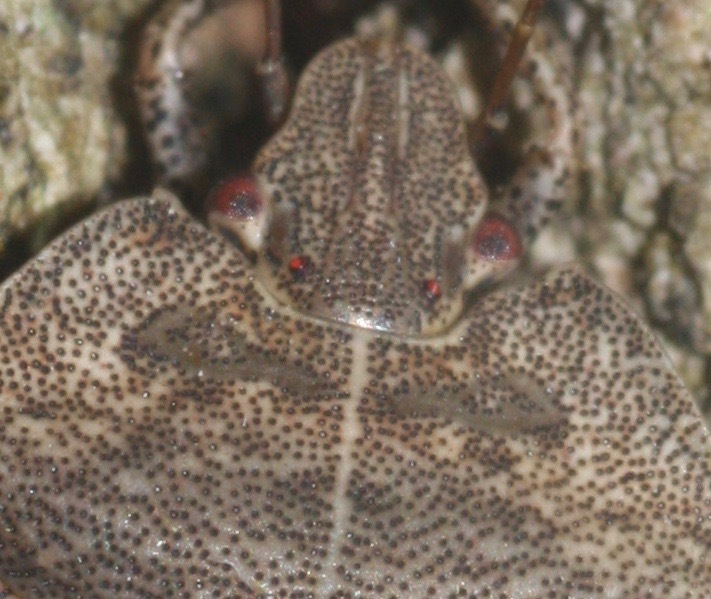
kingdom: Animalia
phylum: Arthropoda
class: Insecta
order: Hemiptera
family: Pentatomidae
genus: Menecles
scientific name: Menecles insertus
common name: Elf shoe stink bug
